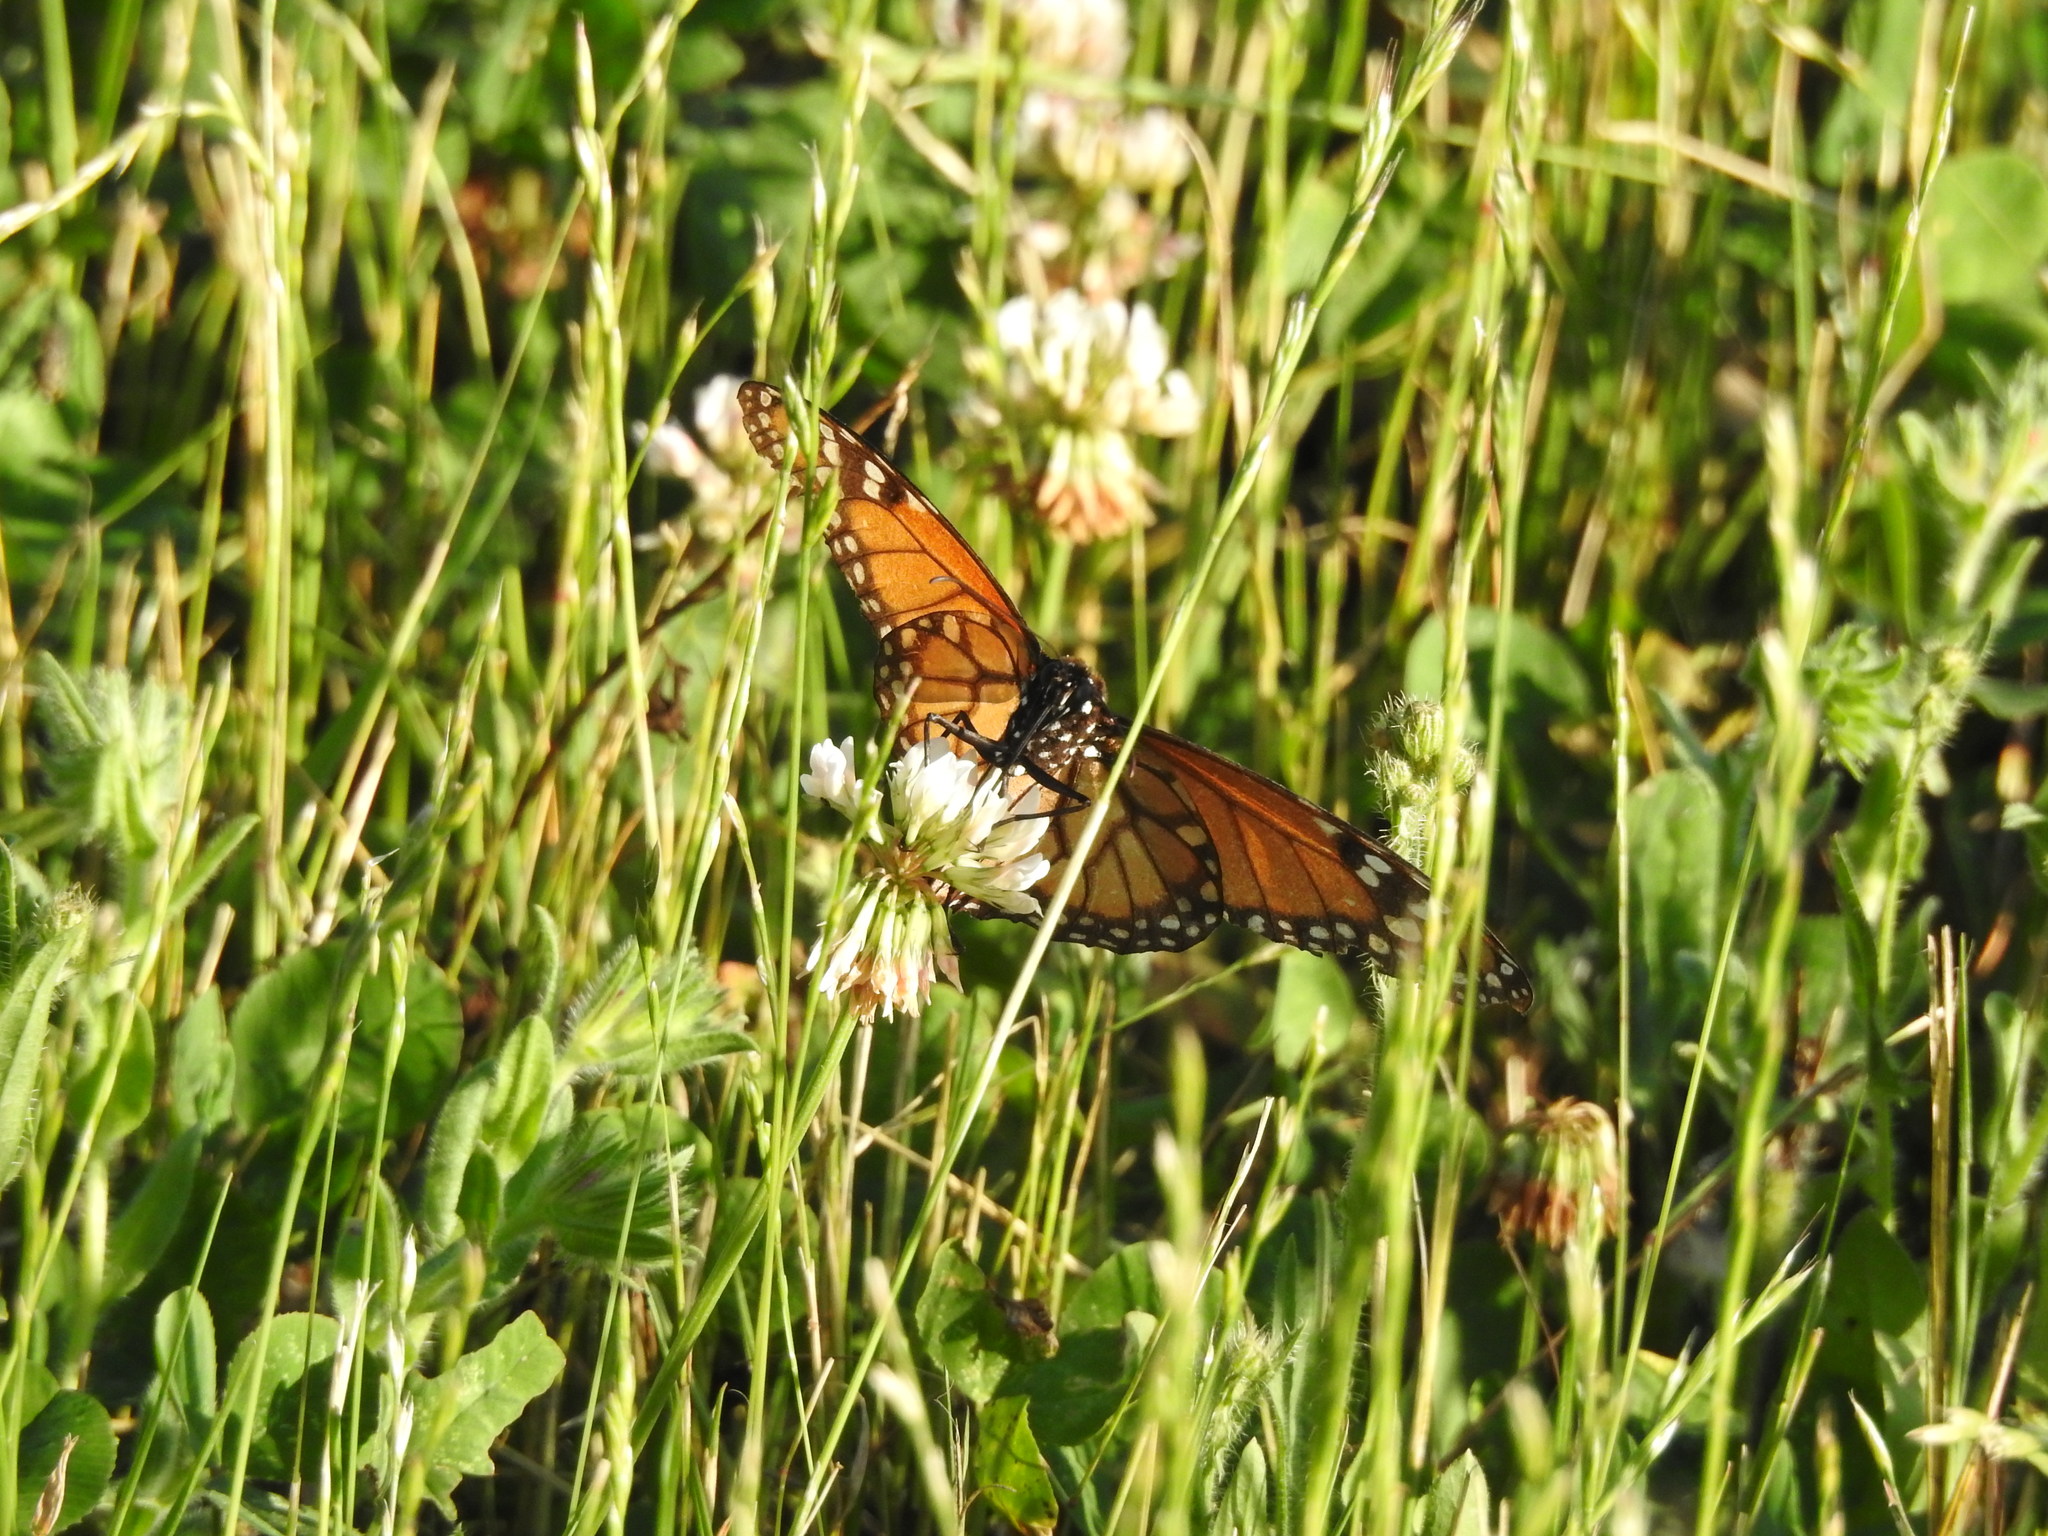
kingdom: Animalia
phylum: Arthropoda
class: Insecta
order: Lepidoptera
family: Nymphalidae
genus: Danaus
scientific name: Danaus erippus
